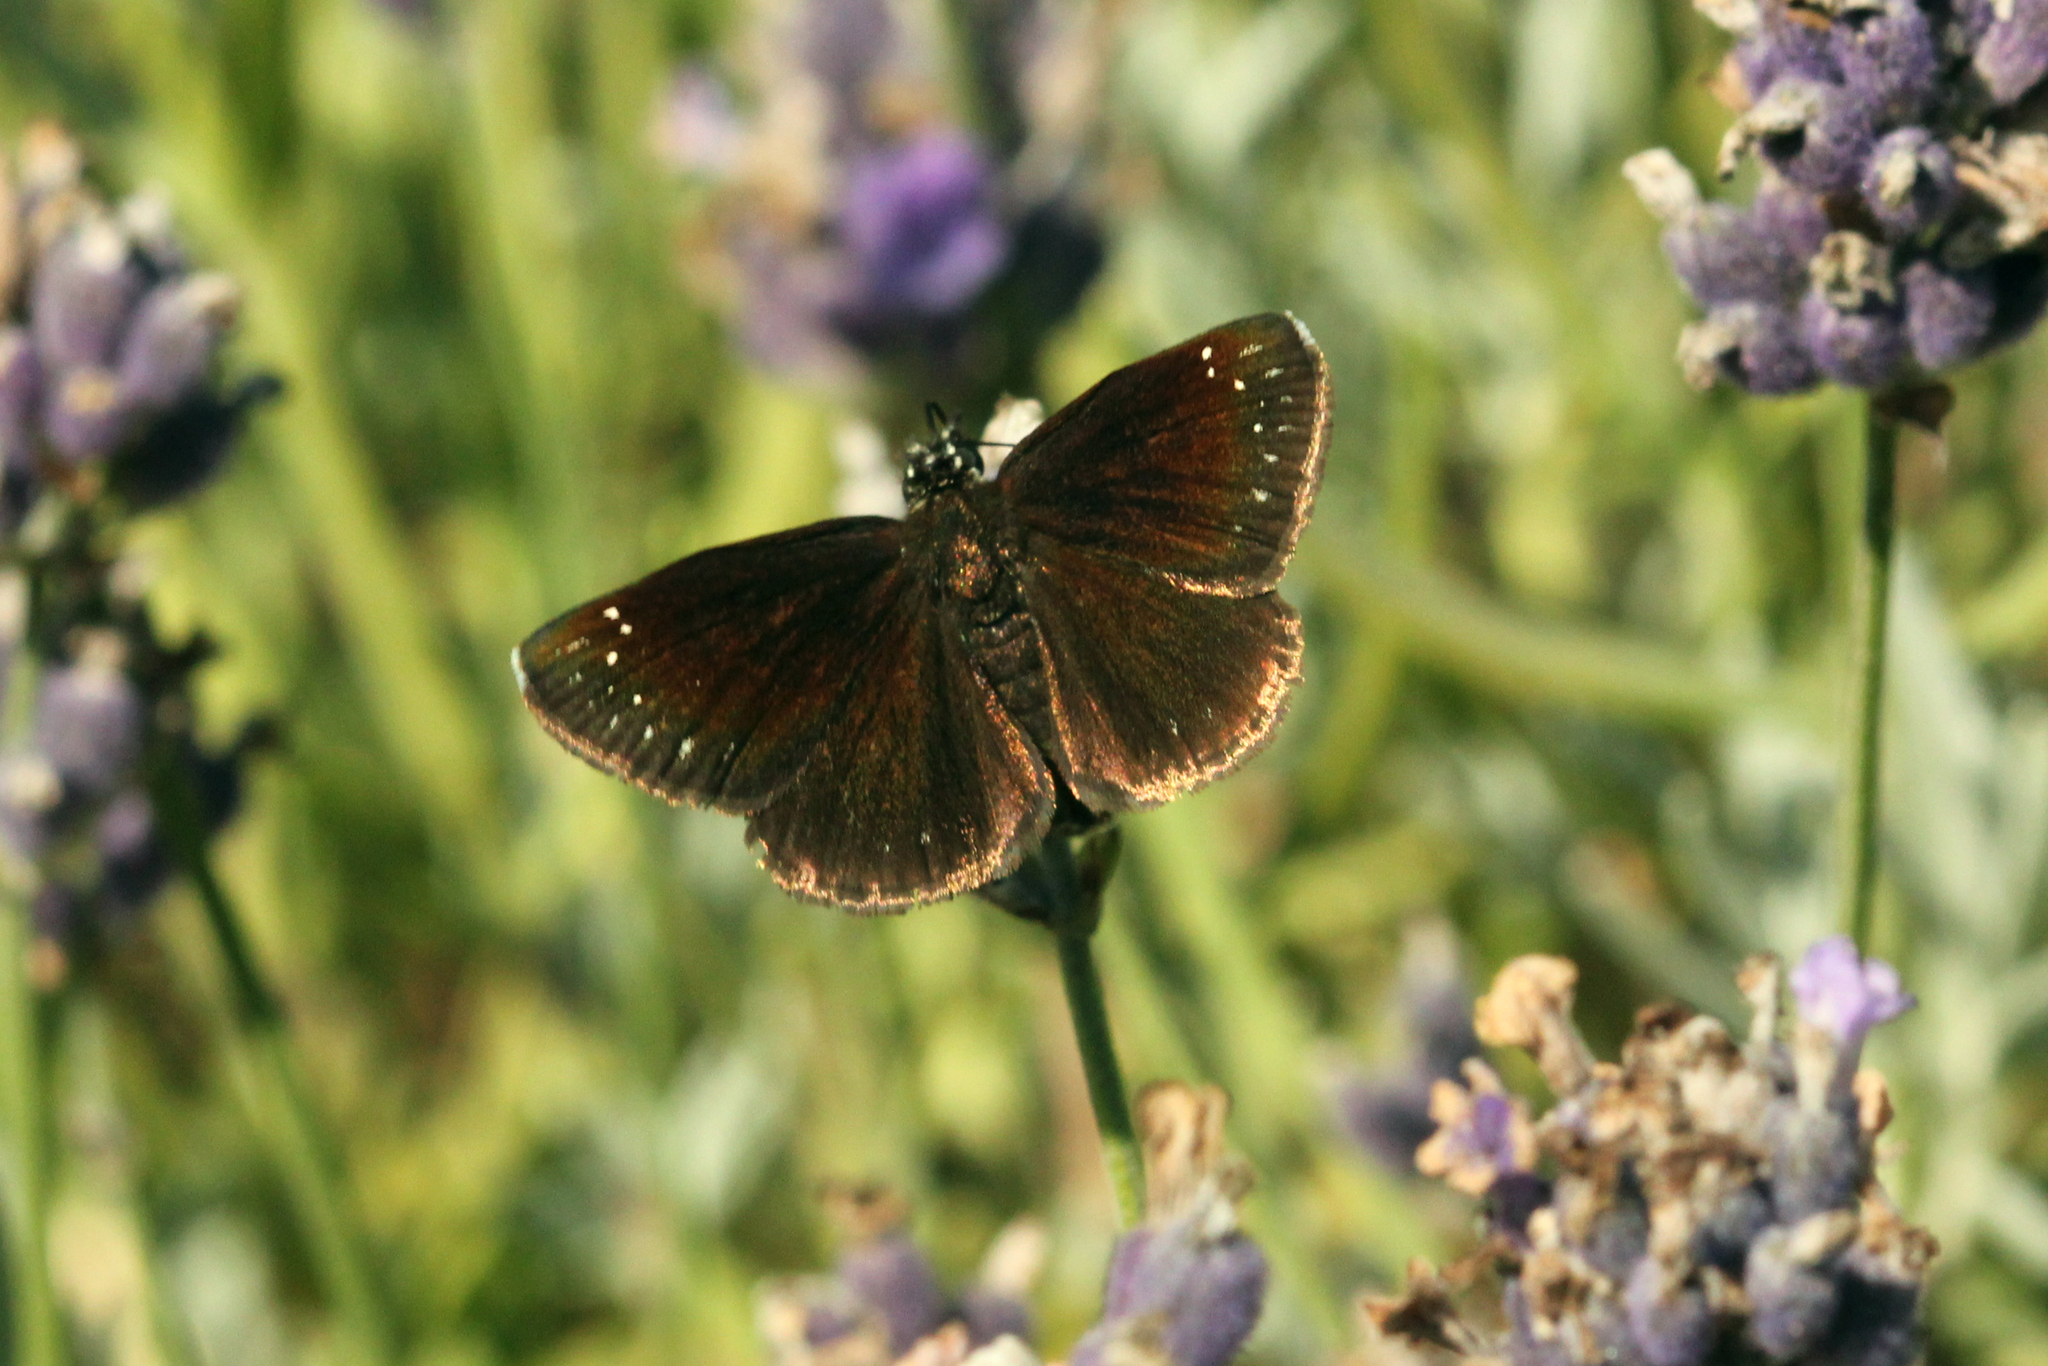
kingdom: Animalia
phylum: Arthropoda
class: Insecta
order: Lepidoptera
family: Hesperiidae
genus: Pholisora
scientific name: Pholisora catullus
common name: Common sootywing
